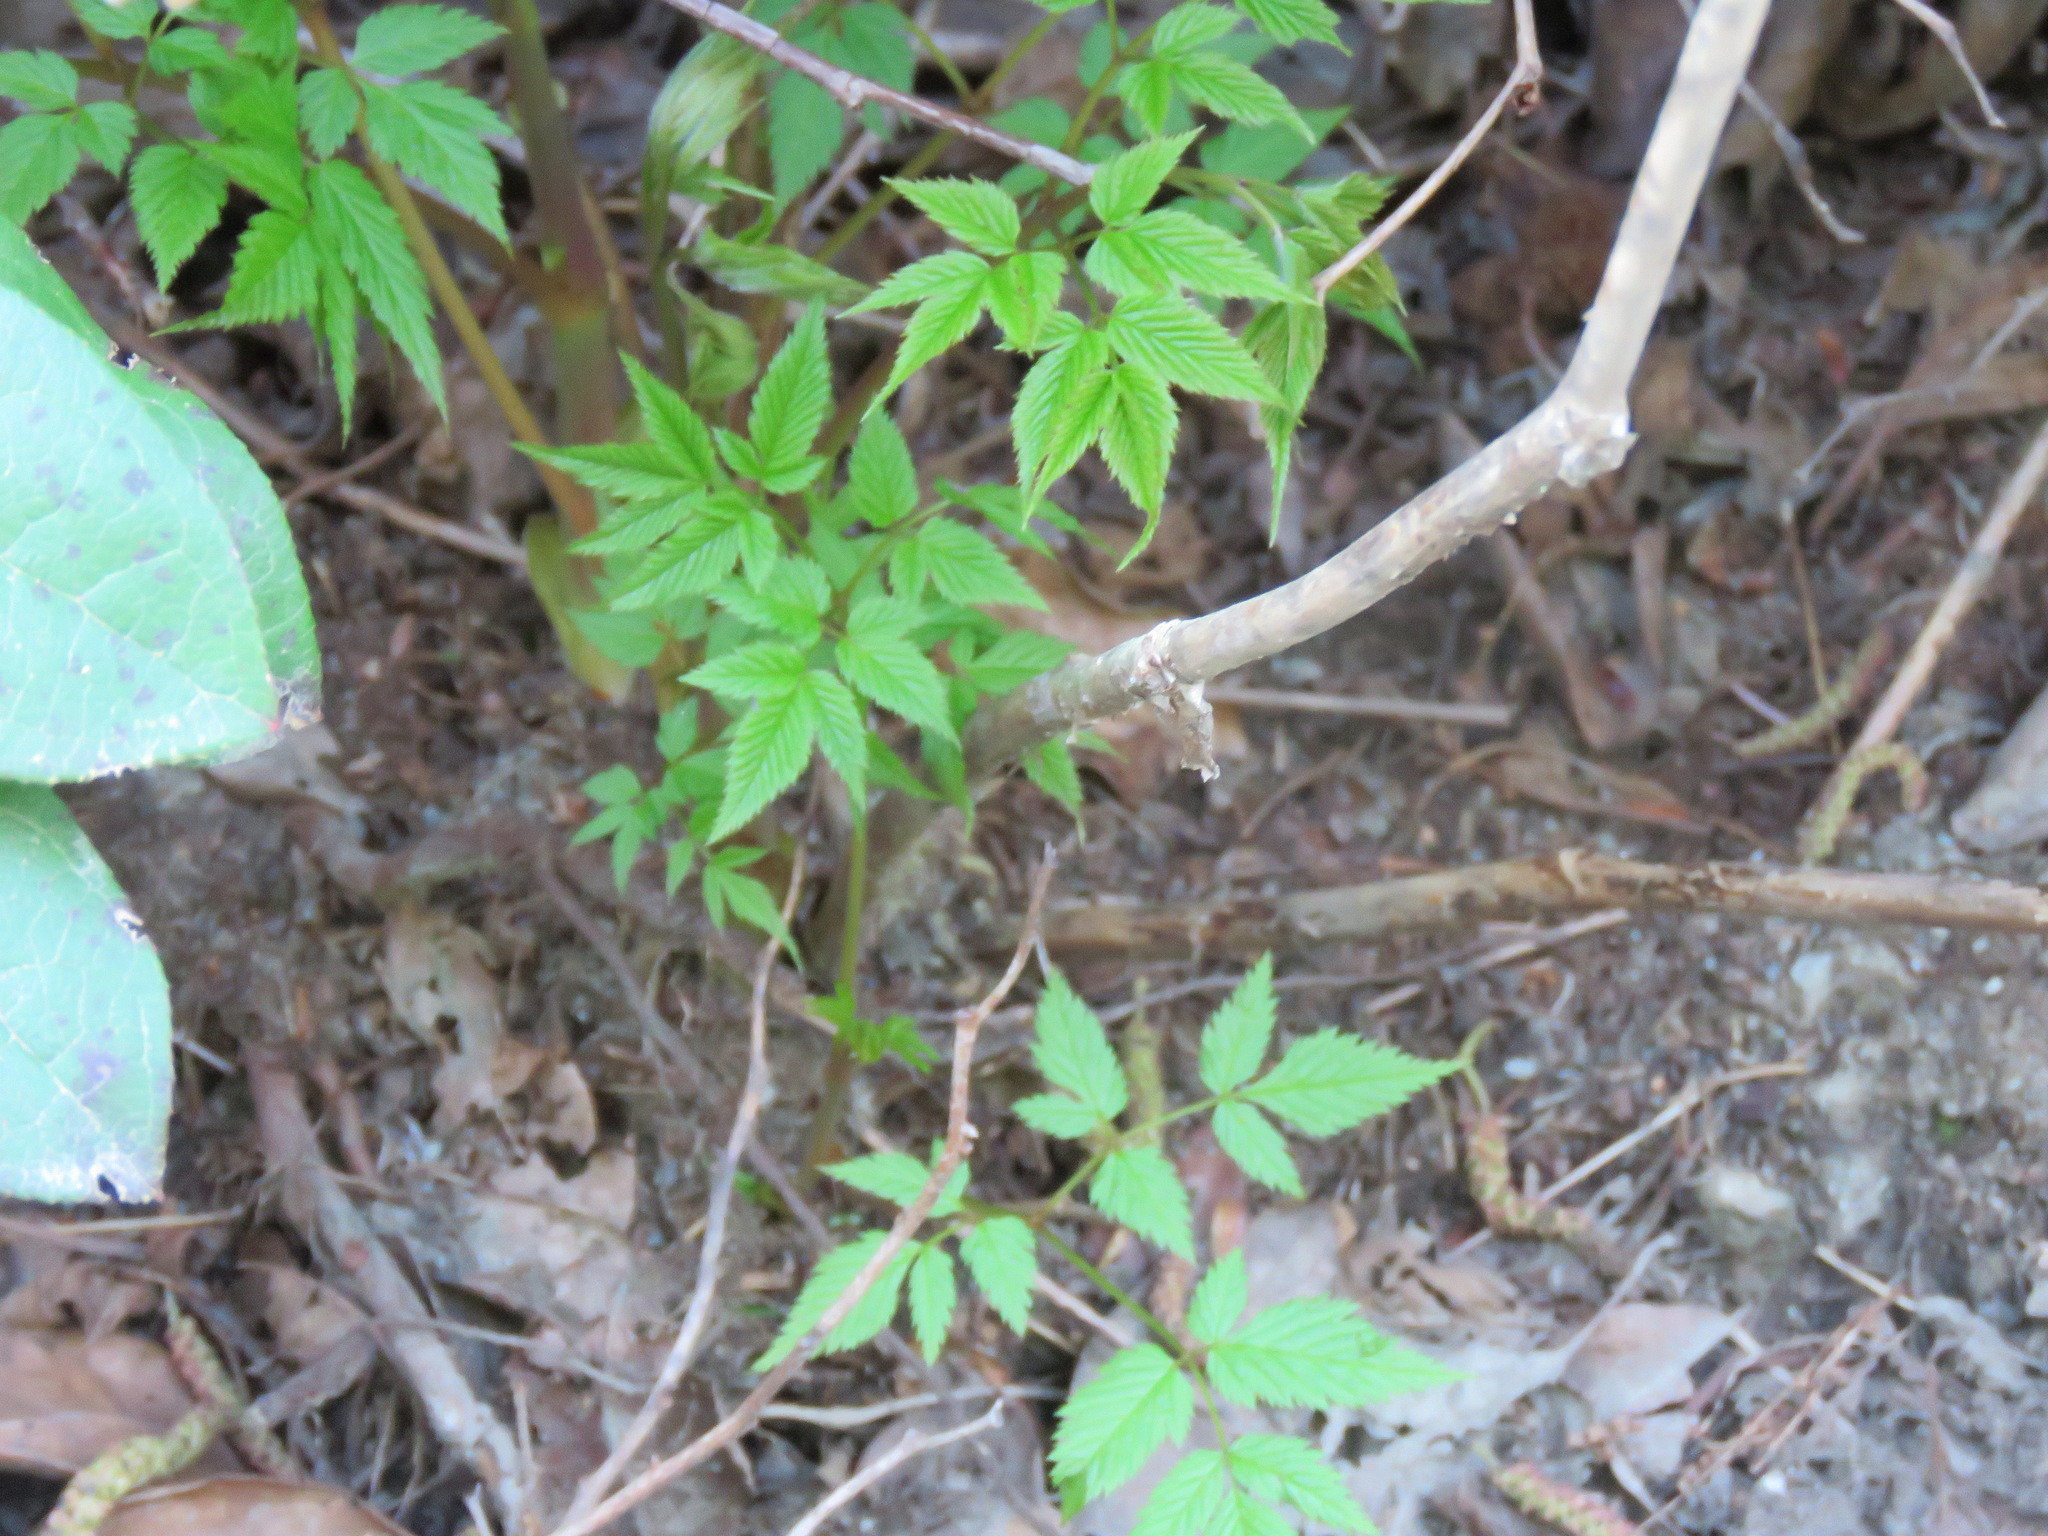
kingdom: Plantae
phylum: Tracheophyta
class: Magnoliopsida
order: Rosales
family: Rosaceae
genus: Aruncus
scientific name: Aruncus dioicus
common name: Buck's-beard
